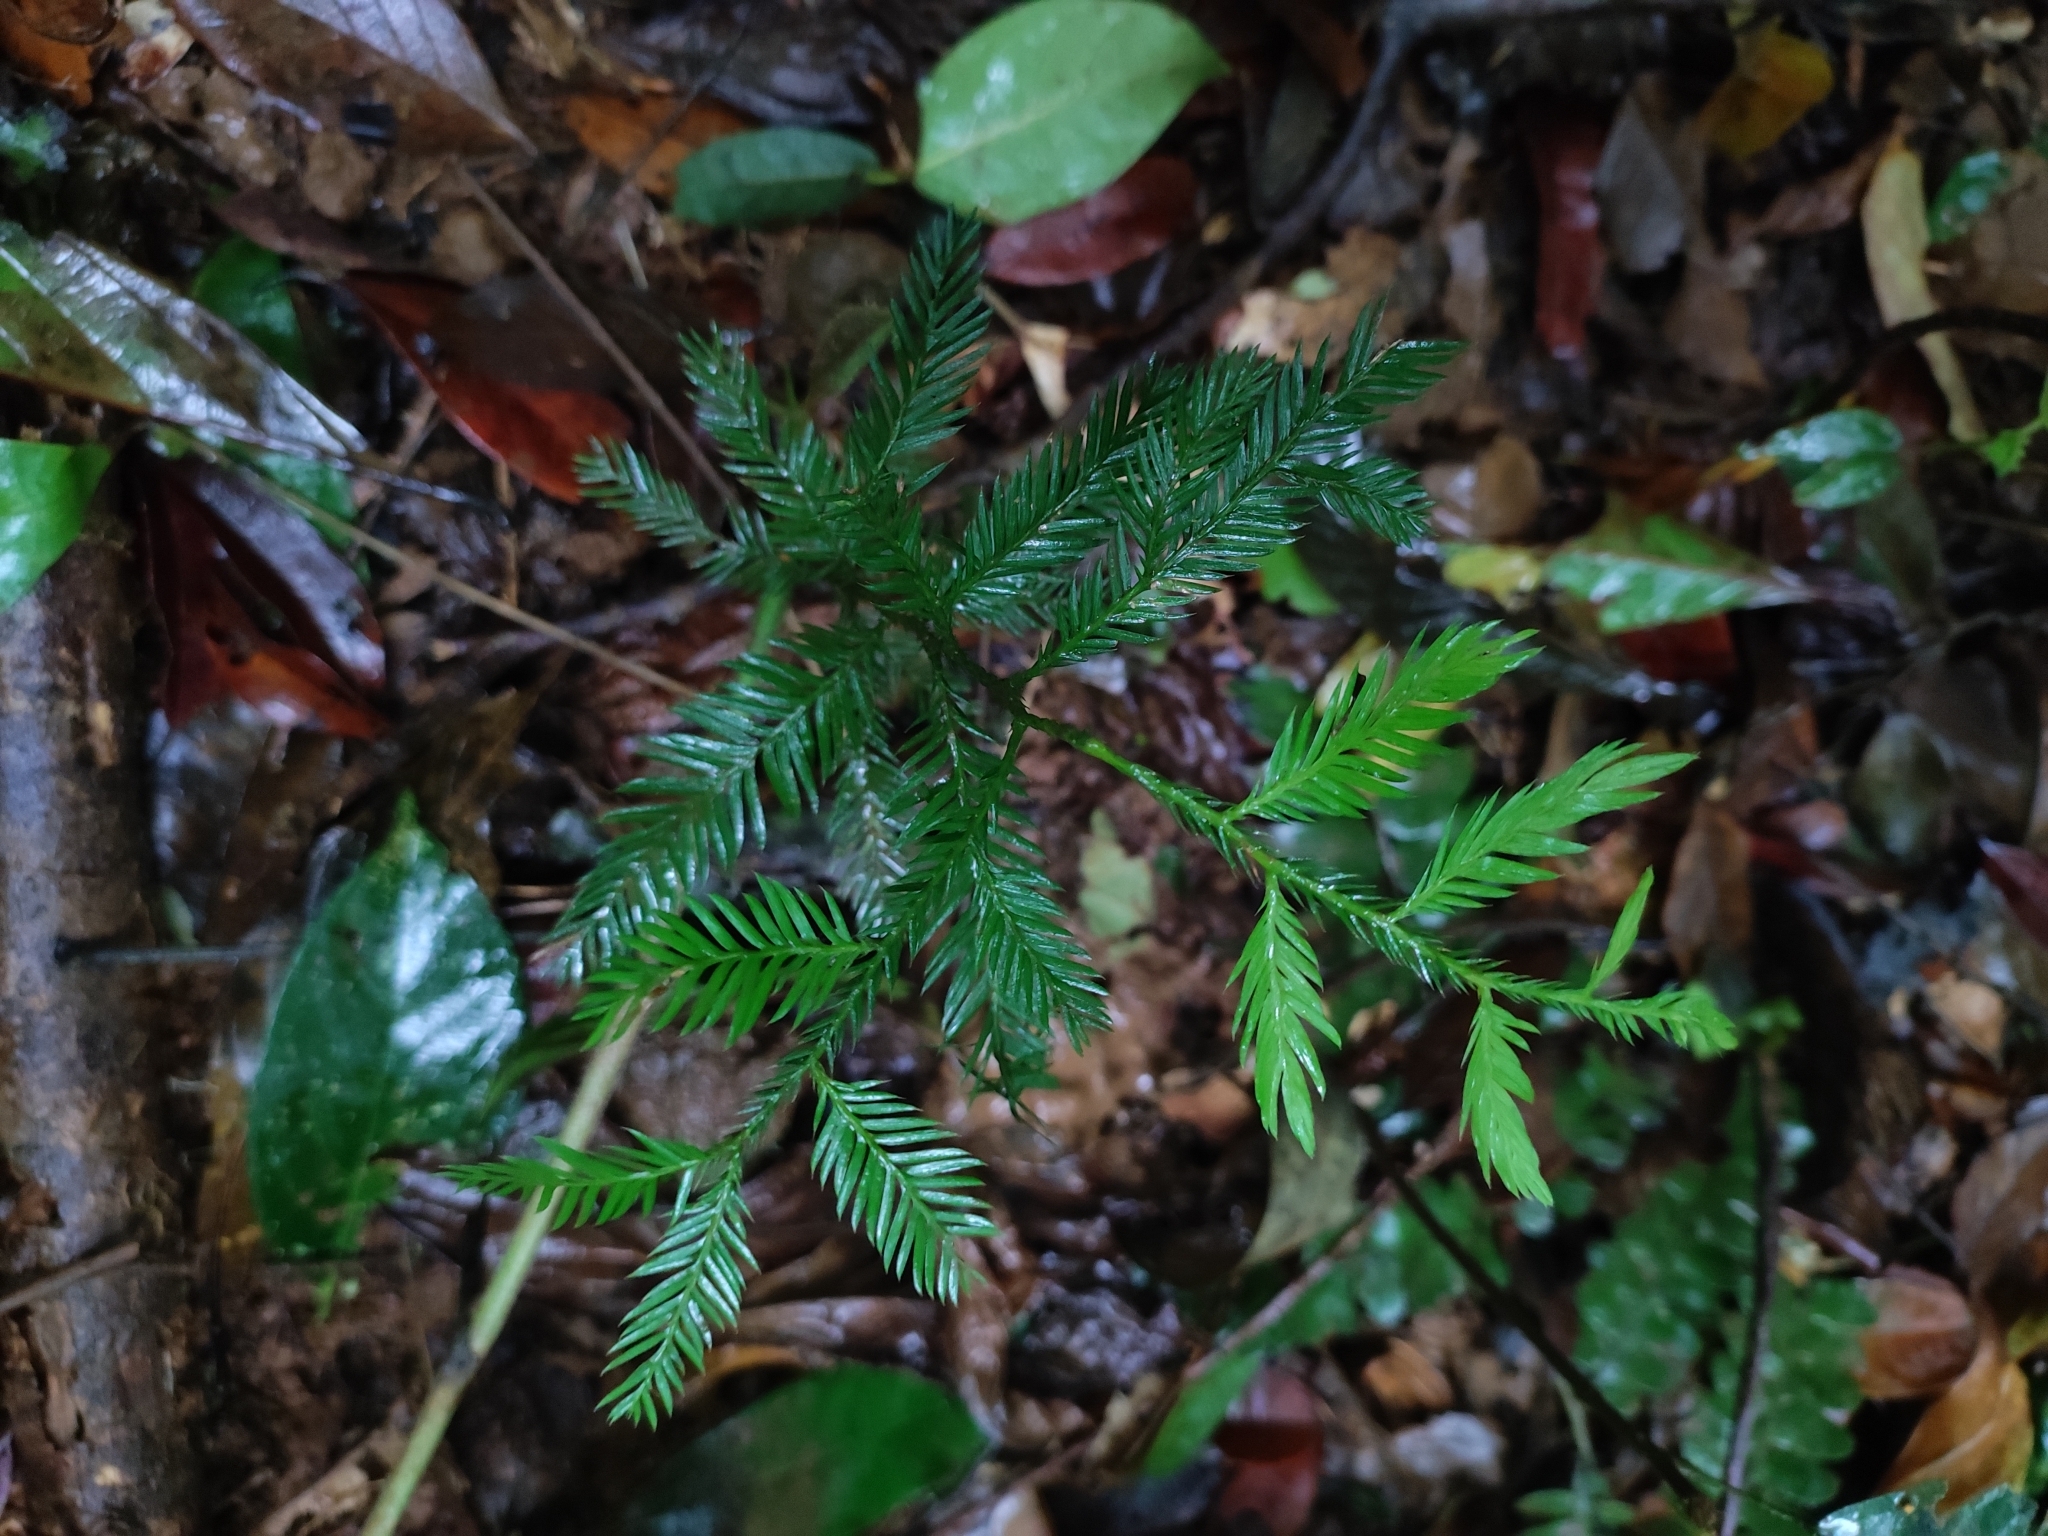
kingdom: Plantae
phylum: Tracheophyta
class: Pinopsida
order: Pinales
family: Podocarpaceae
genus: Dacrycarpus
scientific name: Dacrycarpus imbricatus
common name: Pine
